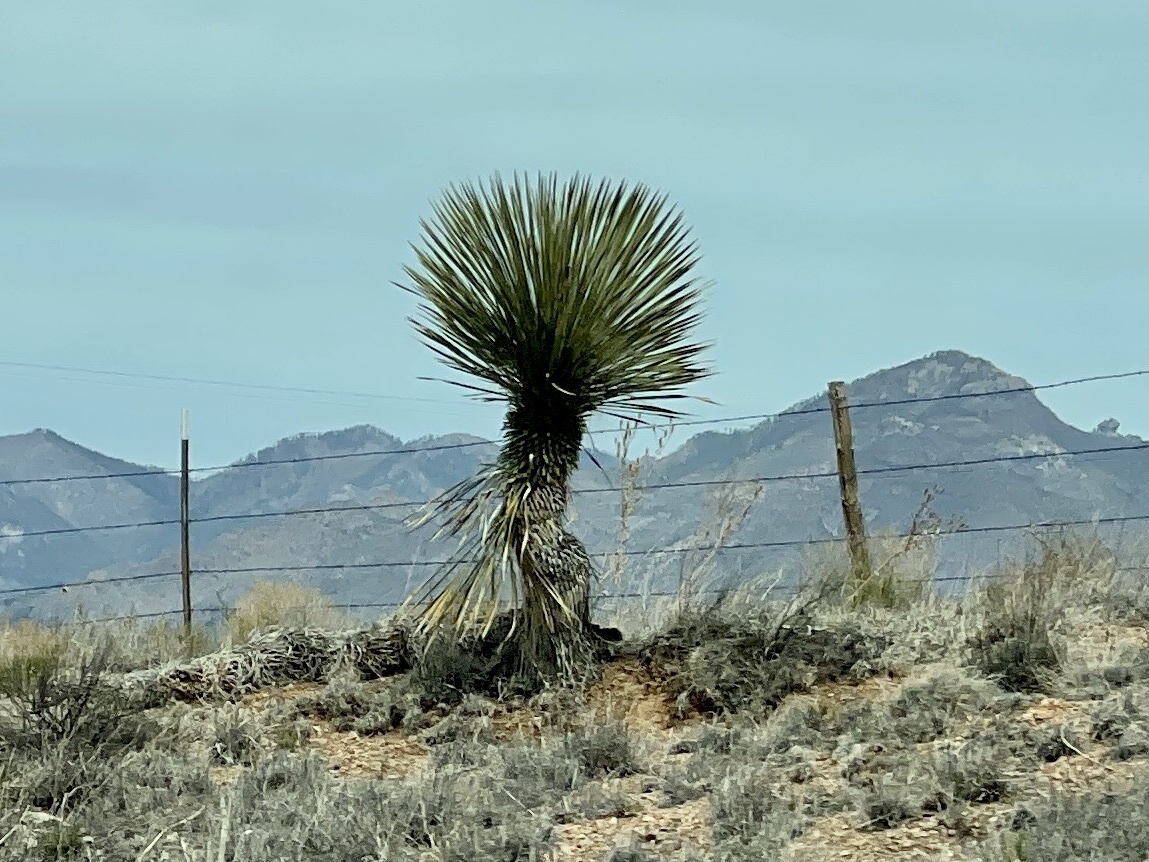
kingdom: Plantae
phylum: Tracheophyta
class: Liliopsida
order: Asparagales
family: Asparagaceae
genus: Yucca
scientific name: Yucca elata
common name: Palmella
